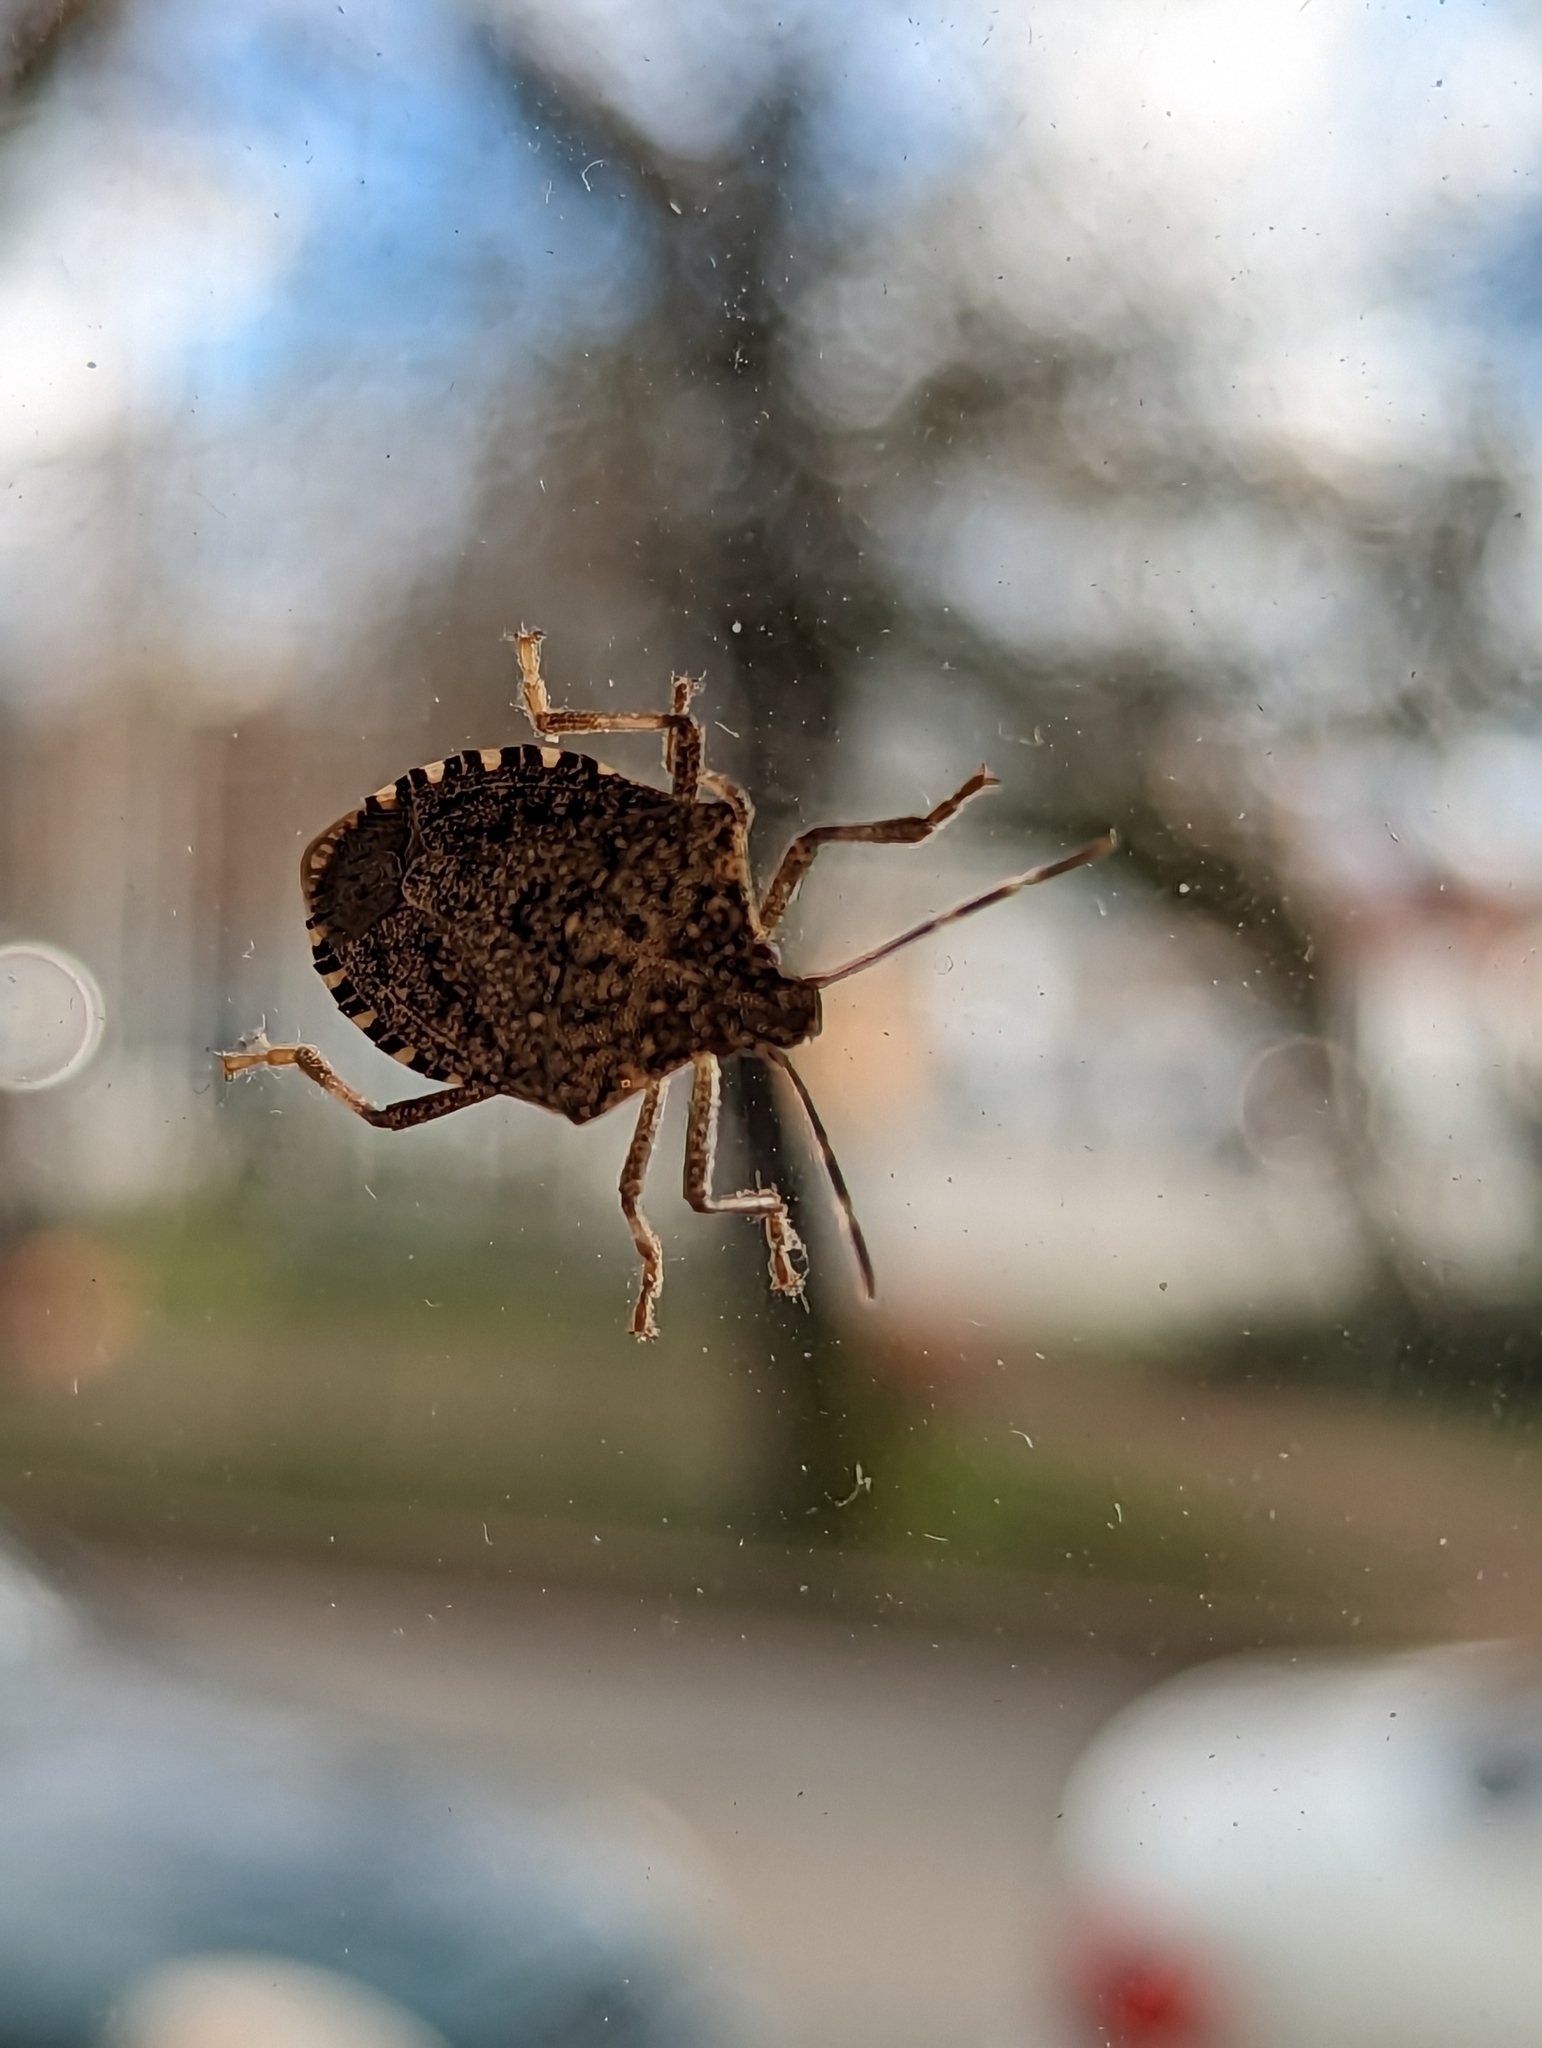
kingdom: Animalia
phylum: Arthropoda
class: Insecta
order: Hemiptera
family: Pentatomidae
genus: Halyomorpha
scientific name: Halyomorpha halys
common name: Brown marmorated stink bug
